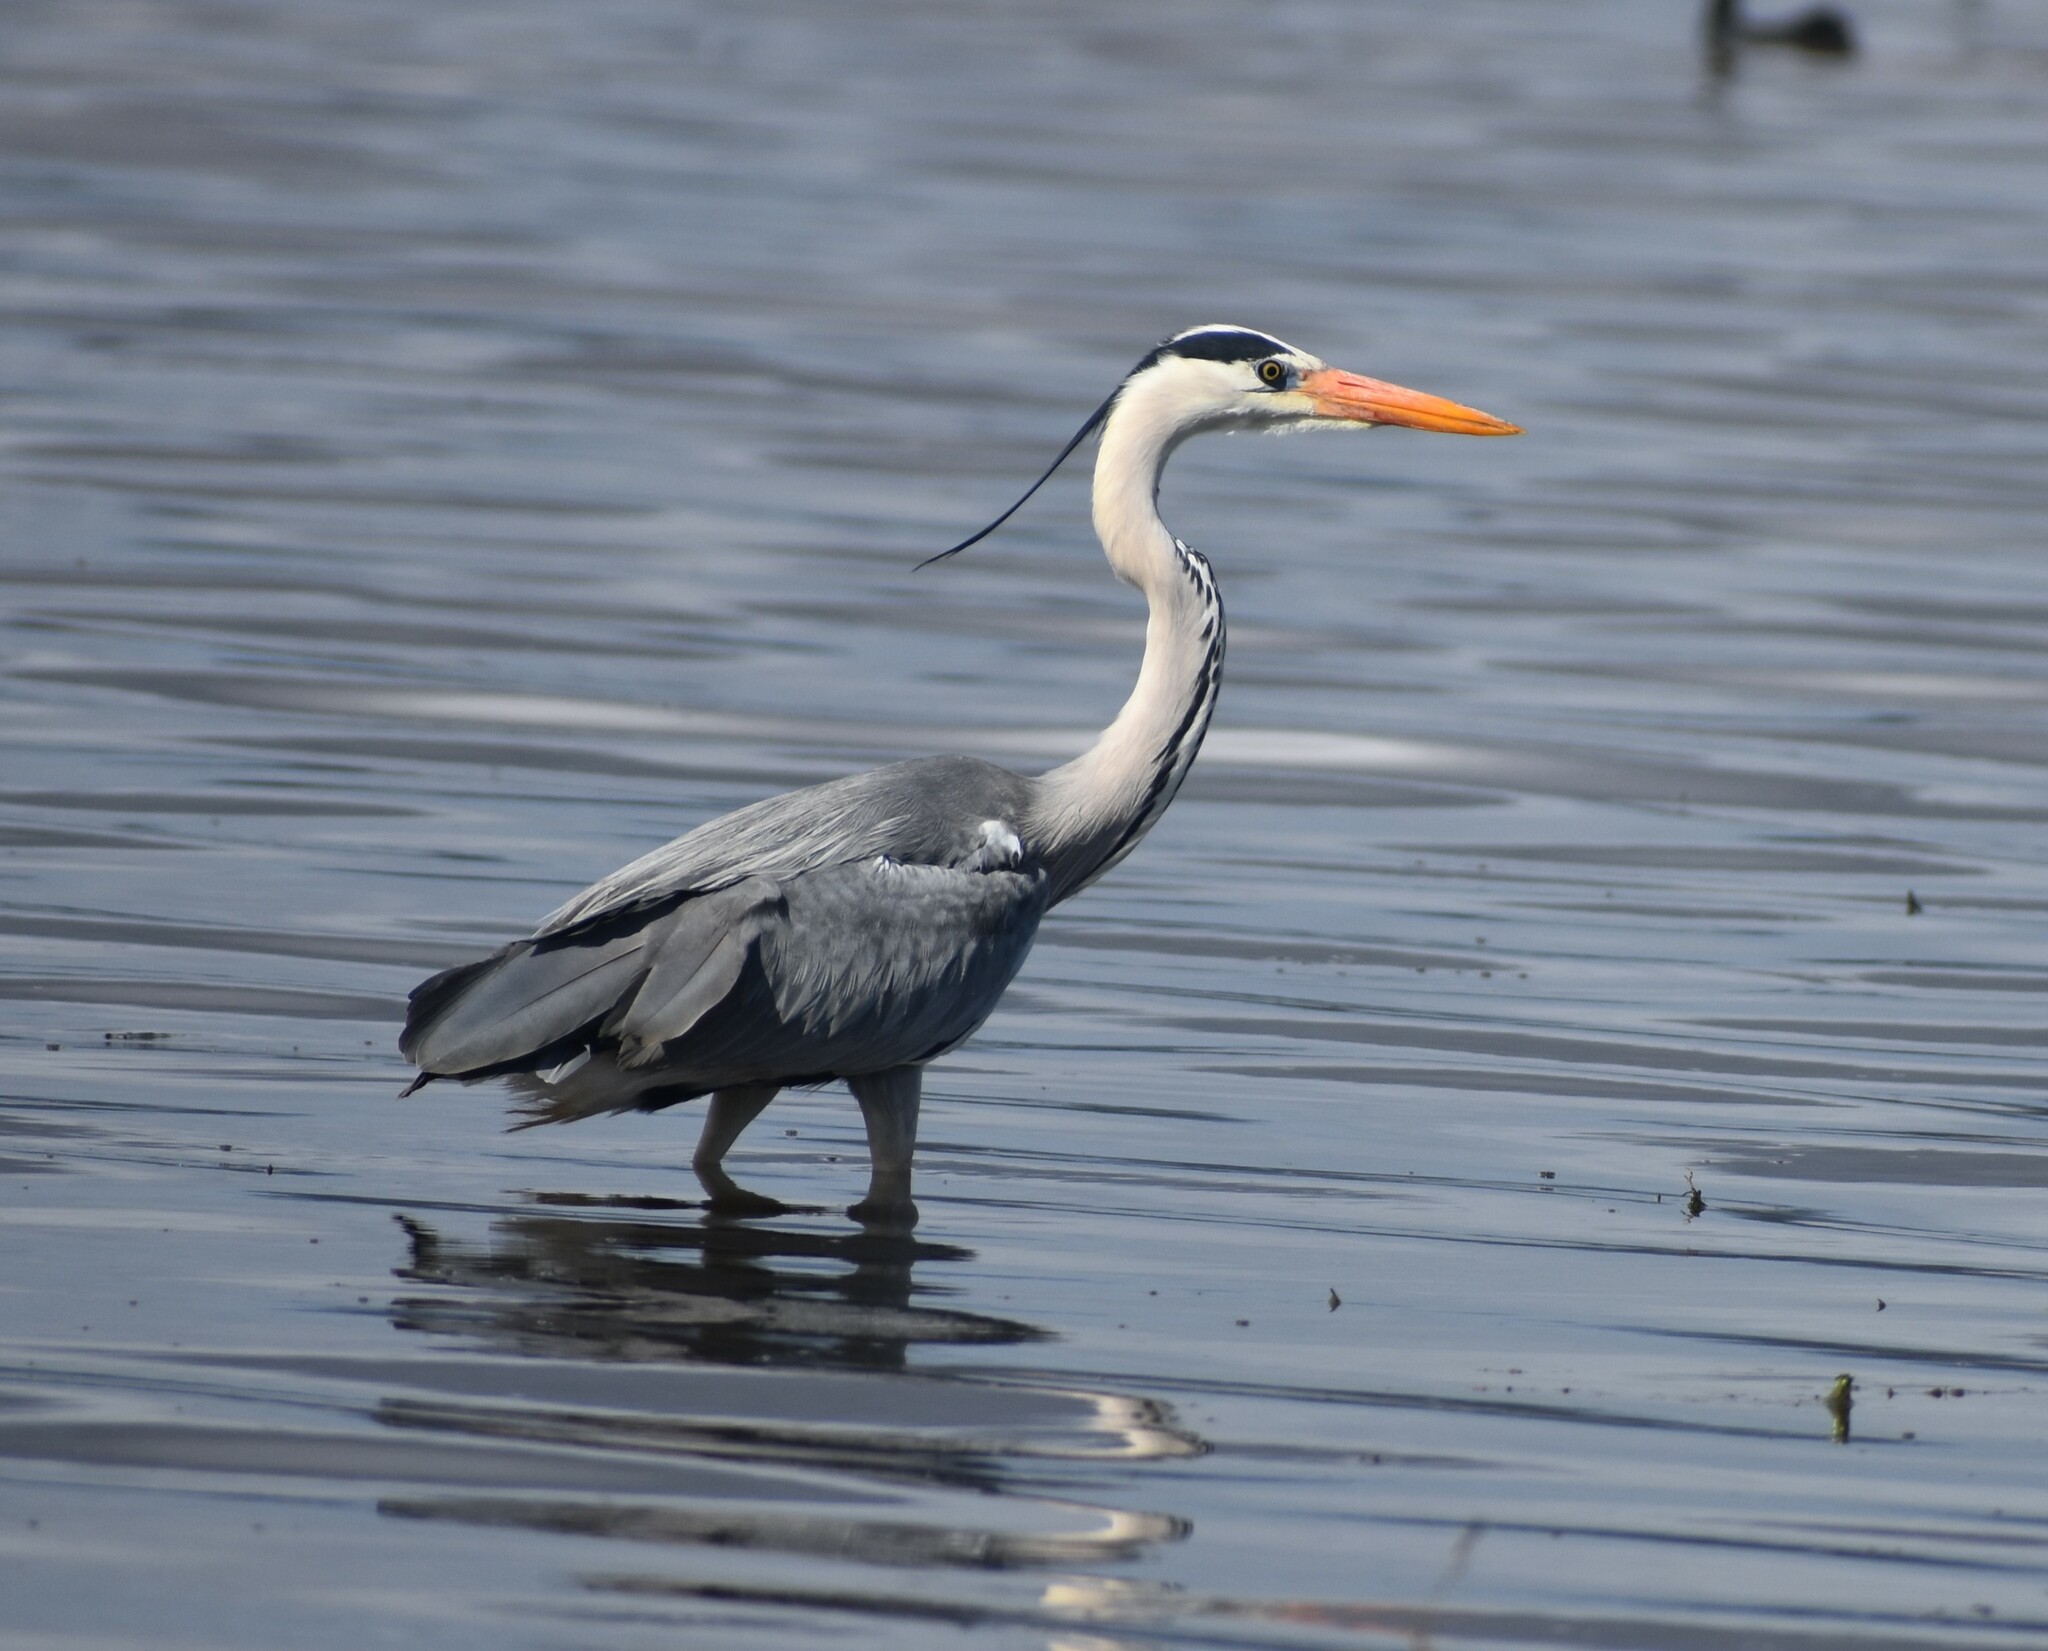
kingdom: Animalia
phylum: Chordata
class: Aves
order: Pelecaniformes
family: Ardeidae
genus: Ardea
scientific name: Ardea cinerea
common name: Grey heron
